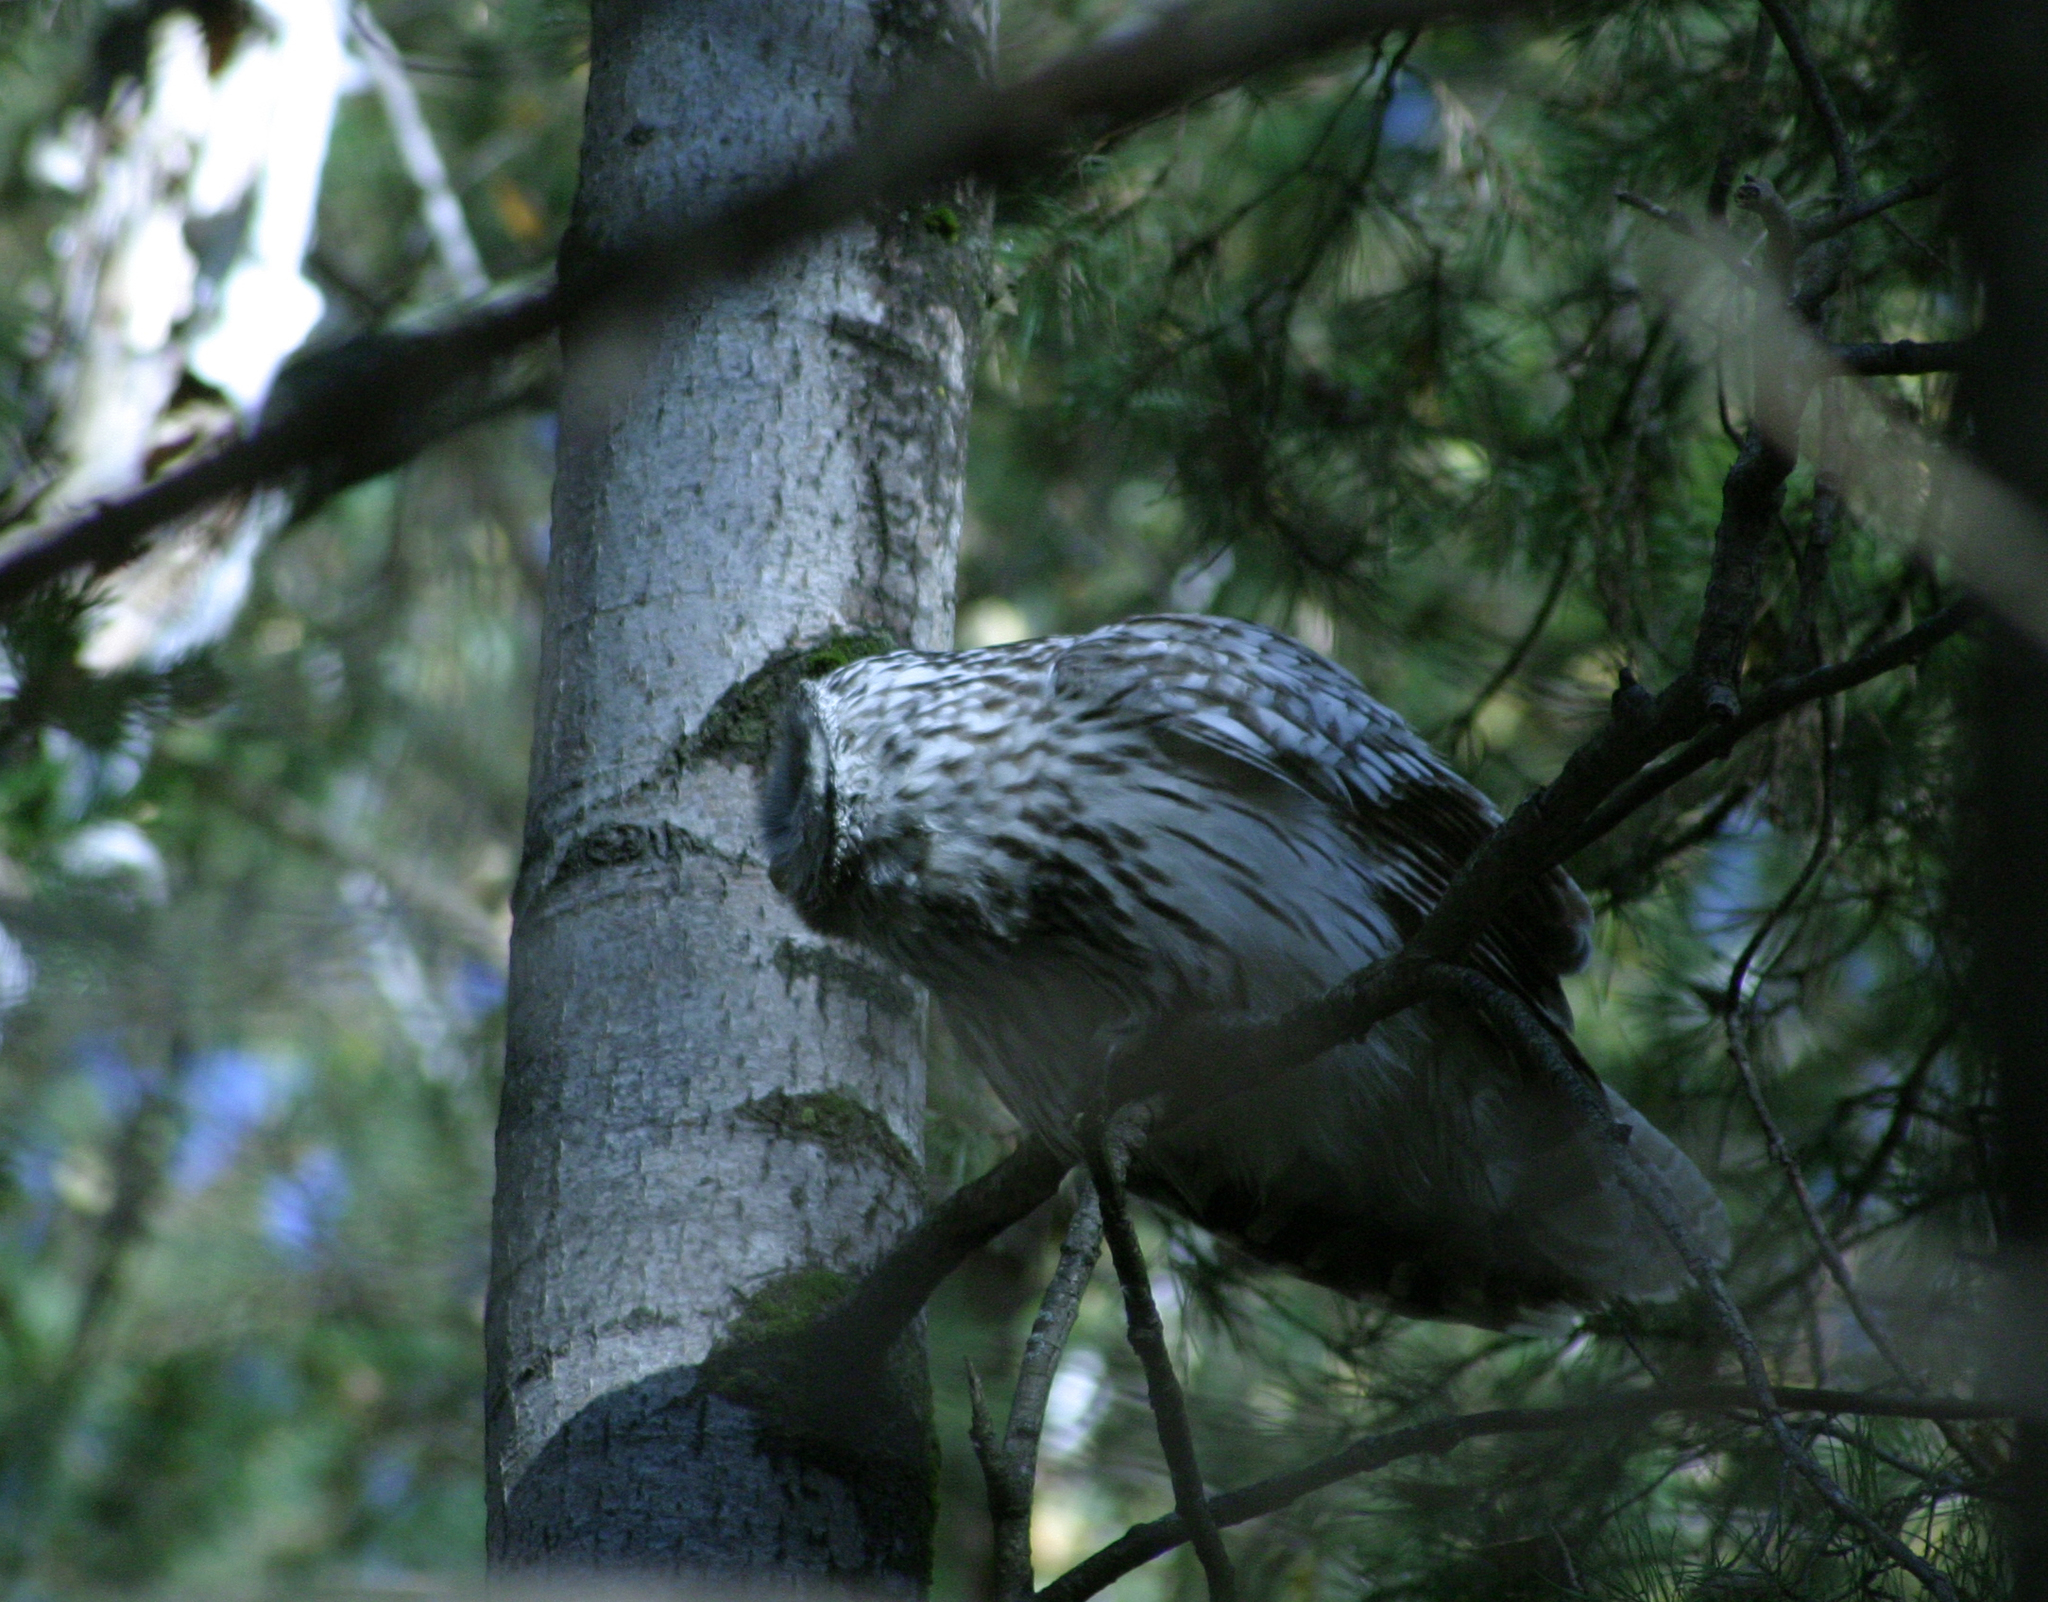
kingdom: Animalia
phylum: Chordata
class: Aves
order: Strigiformes
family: Strigidae
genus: Strix
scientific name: Strix uralensis
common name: Ural owl
